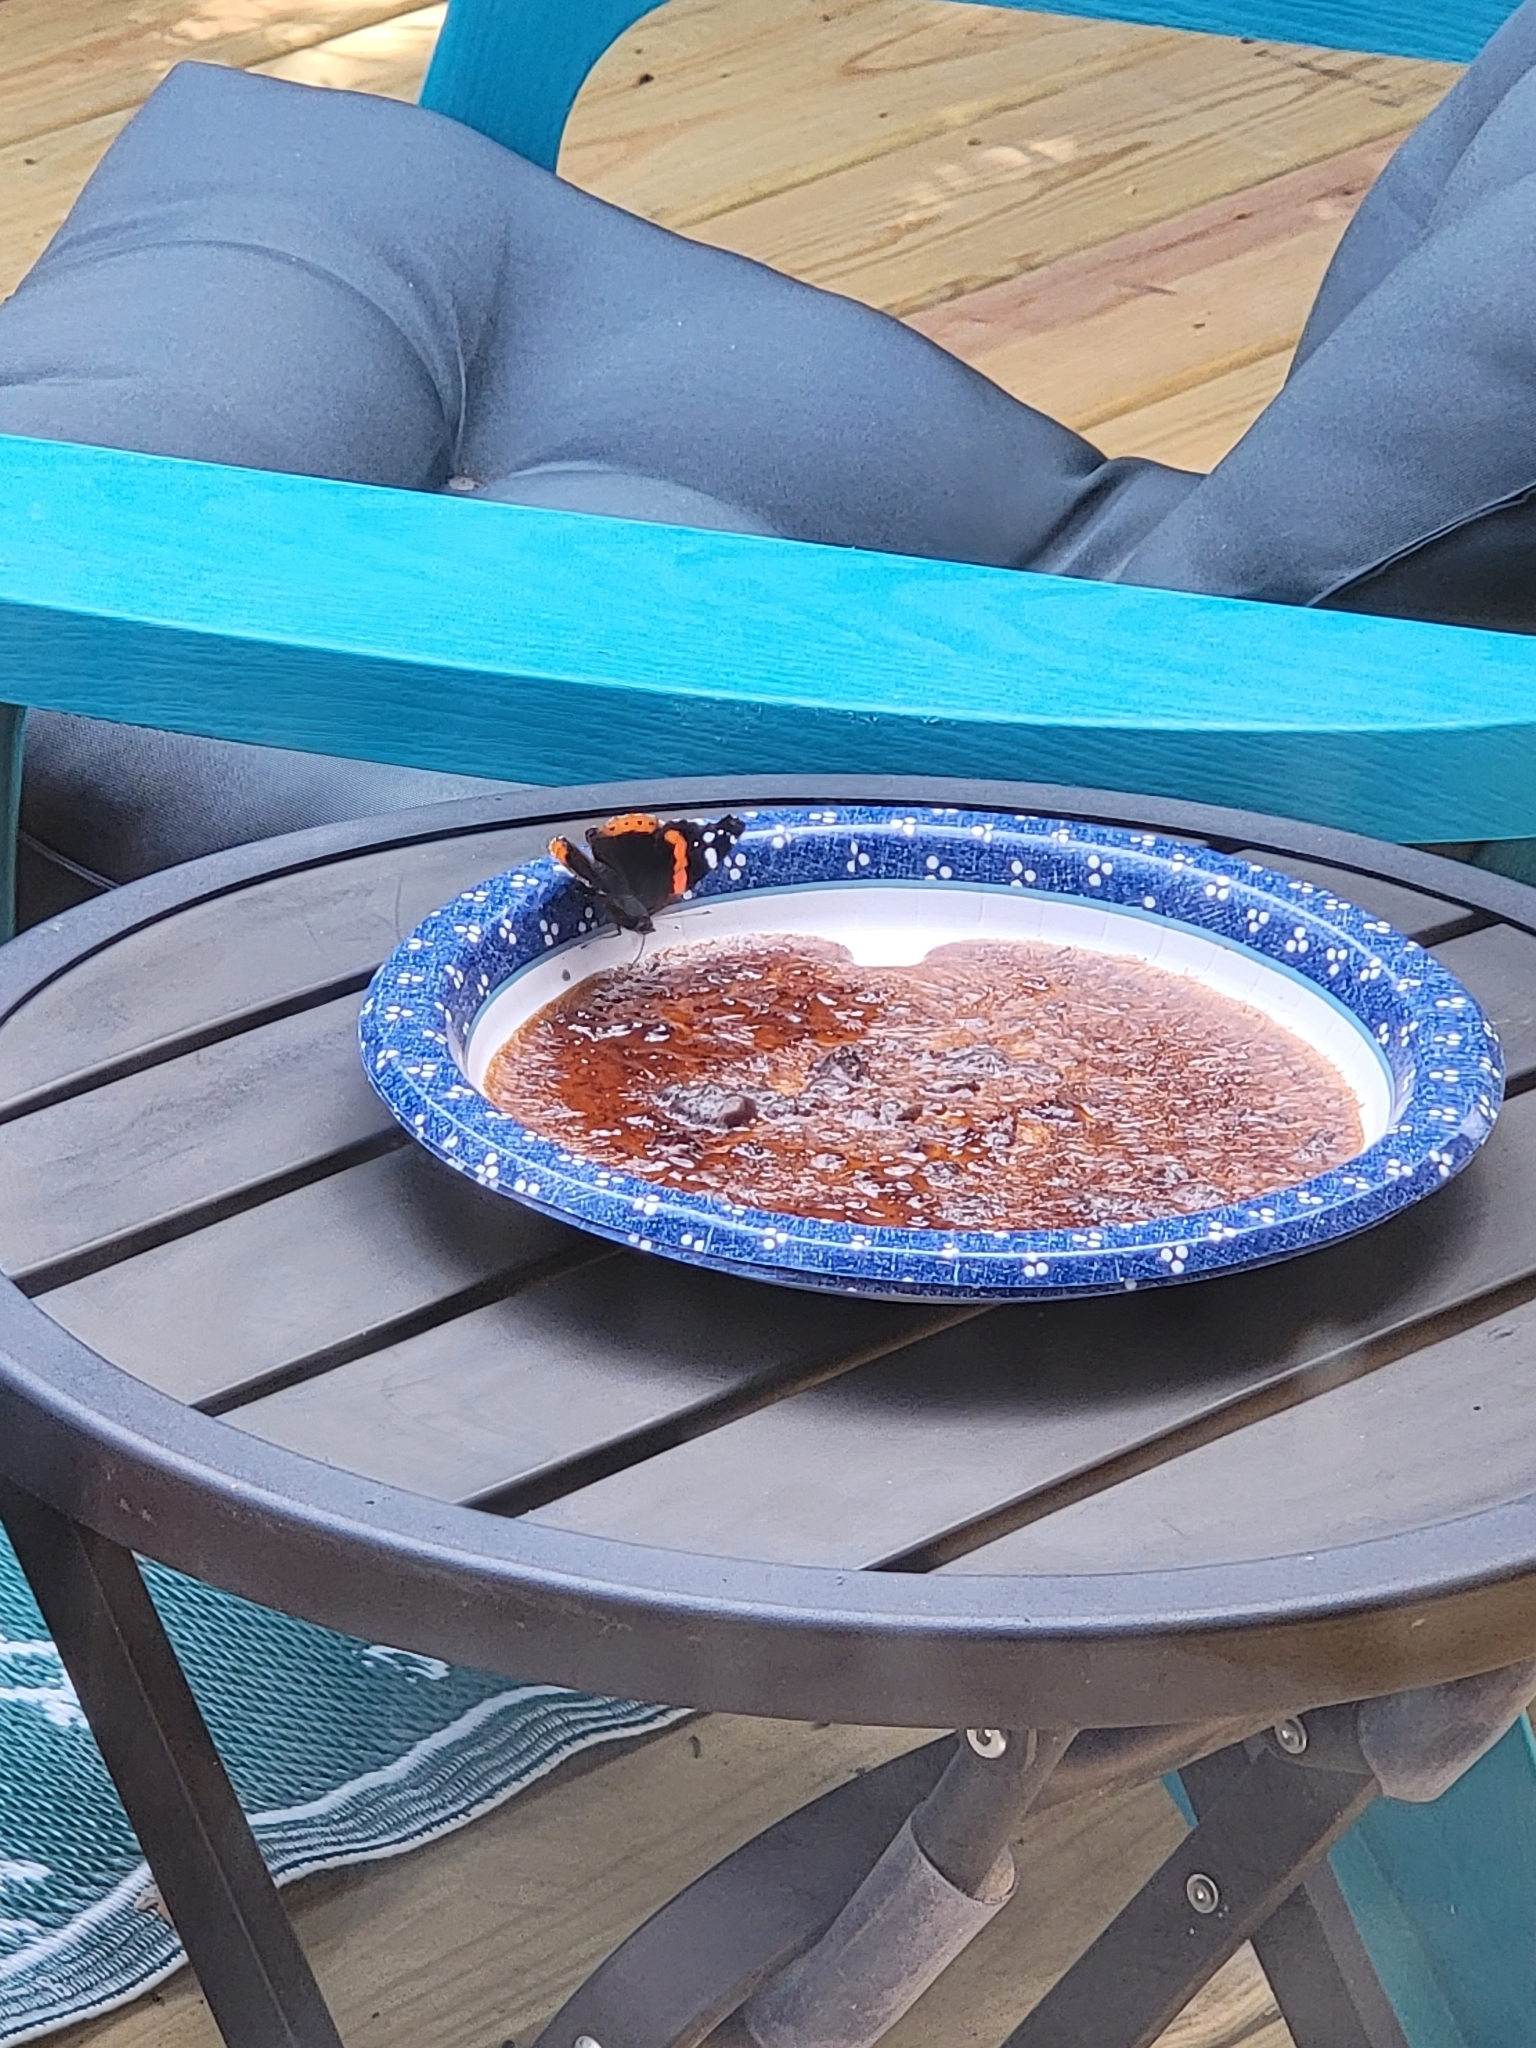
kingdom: Animalia
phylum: Arthropoda
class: Insecta
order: Lepidoptera
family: Nymphalidae
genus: Vanessa
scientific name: Vanessa atalanta
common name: Red admiral
